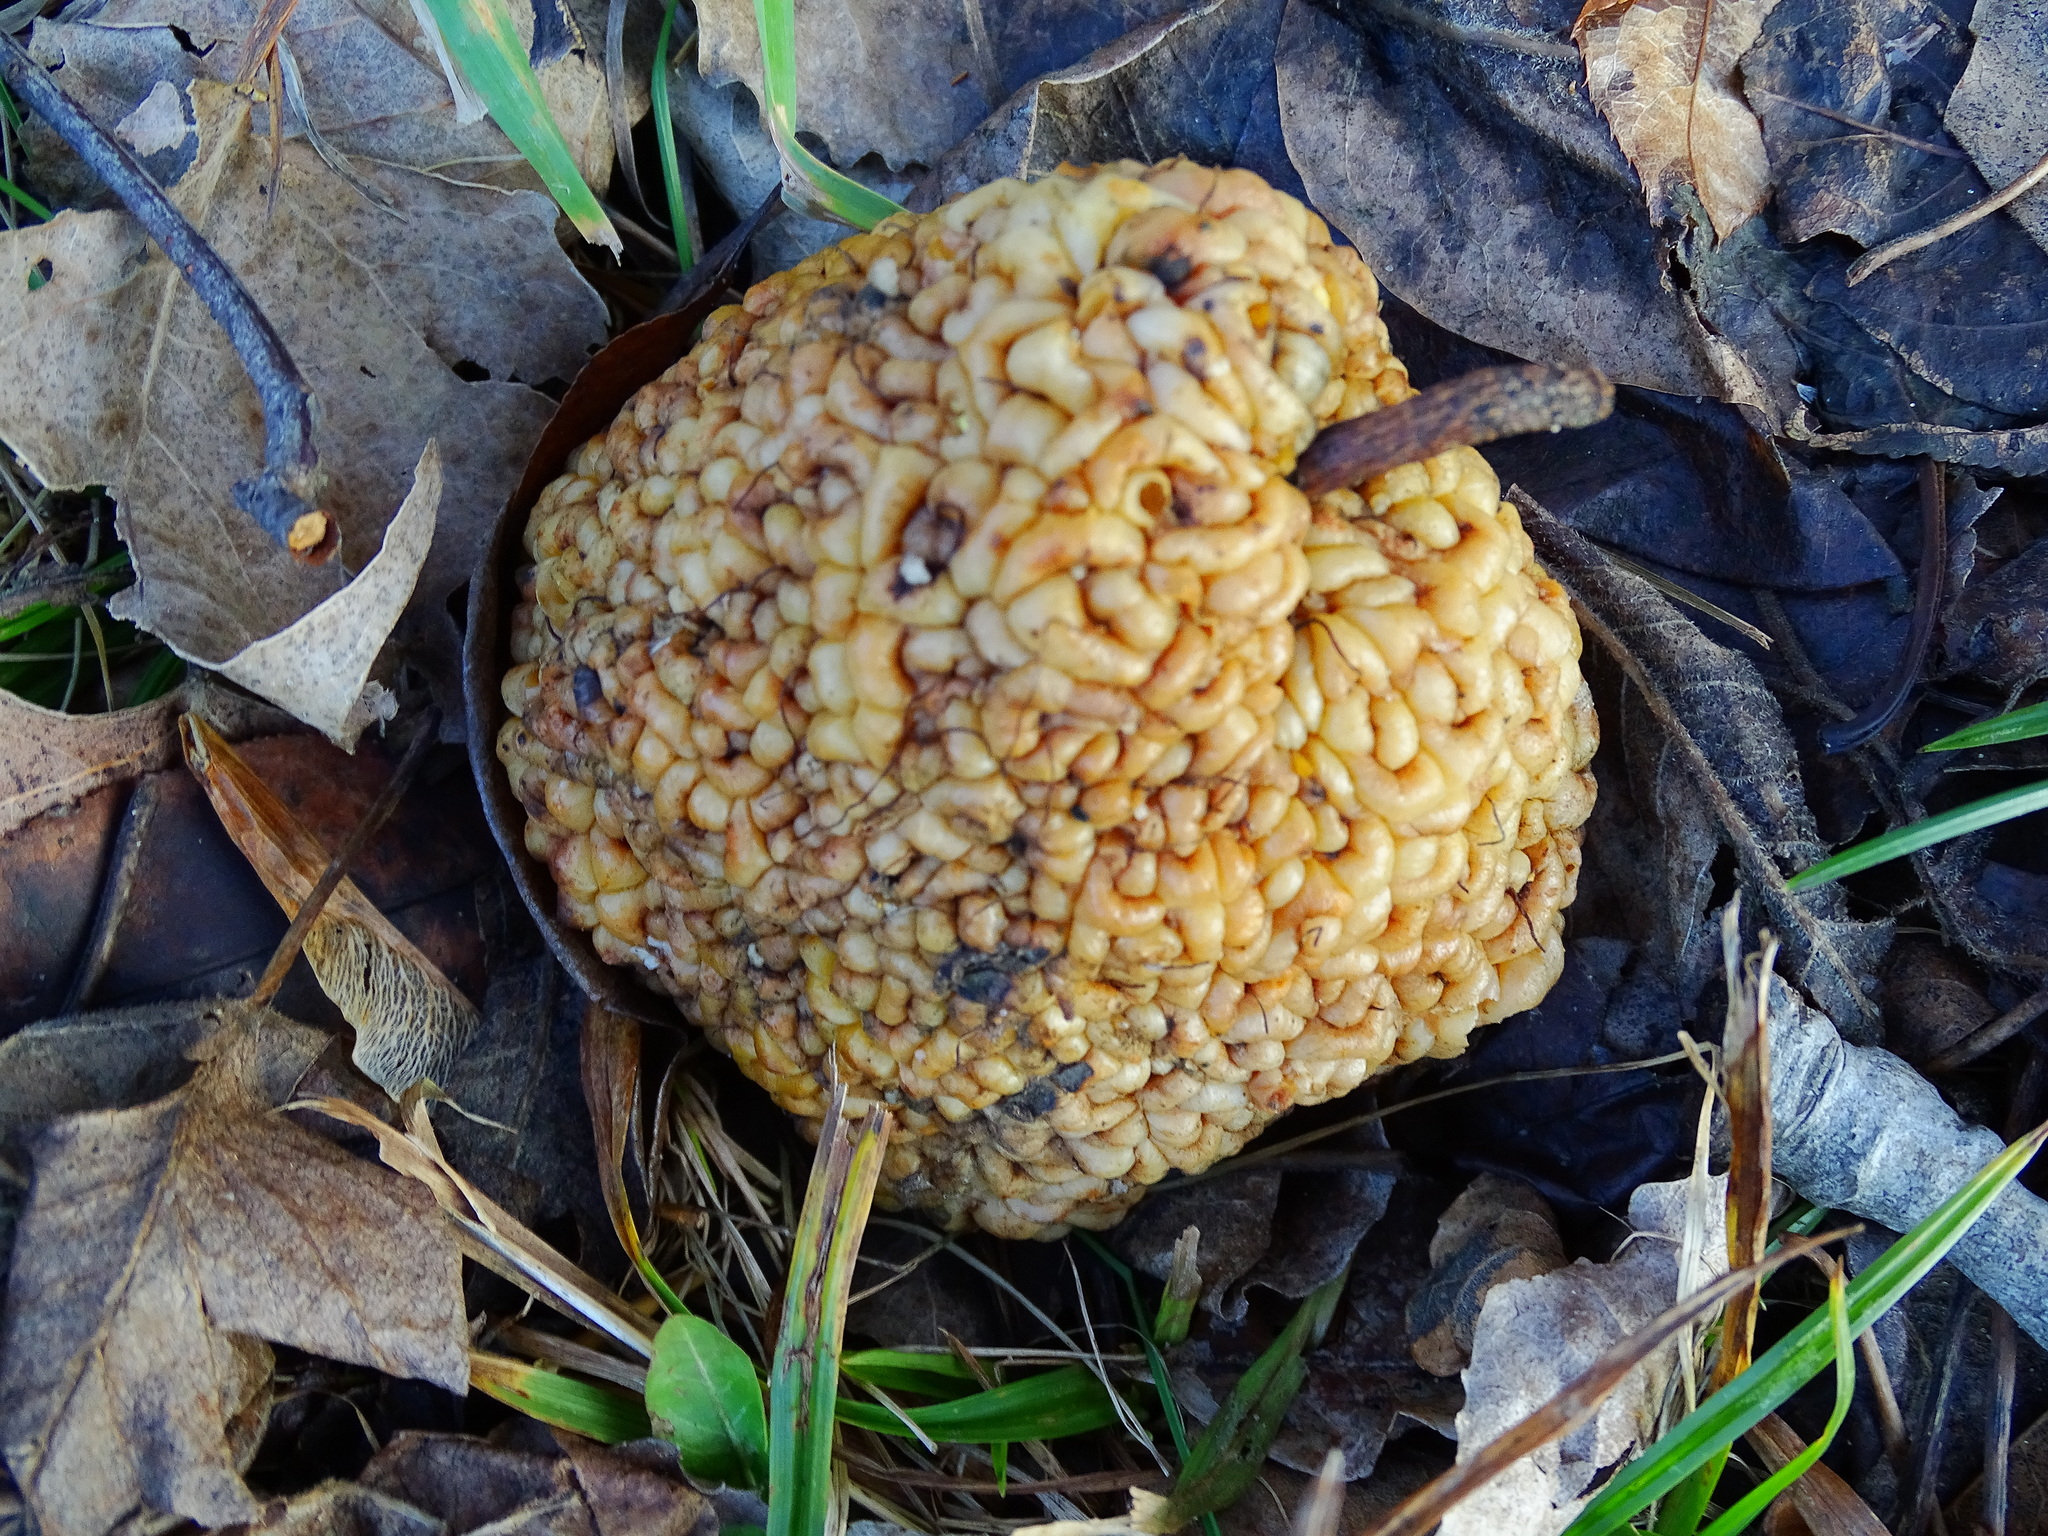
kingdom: Plantae
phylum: Tracheophyta
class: Magnoliopsida
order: Rosales
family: Moraceae
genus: Maclura
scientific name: Maclura pomifera
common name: Osage-orange
